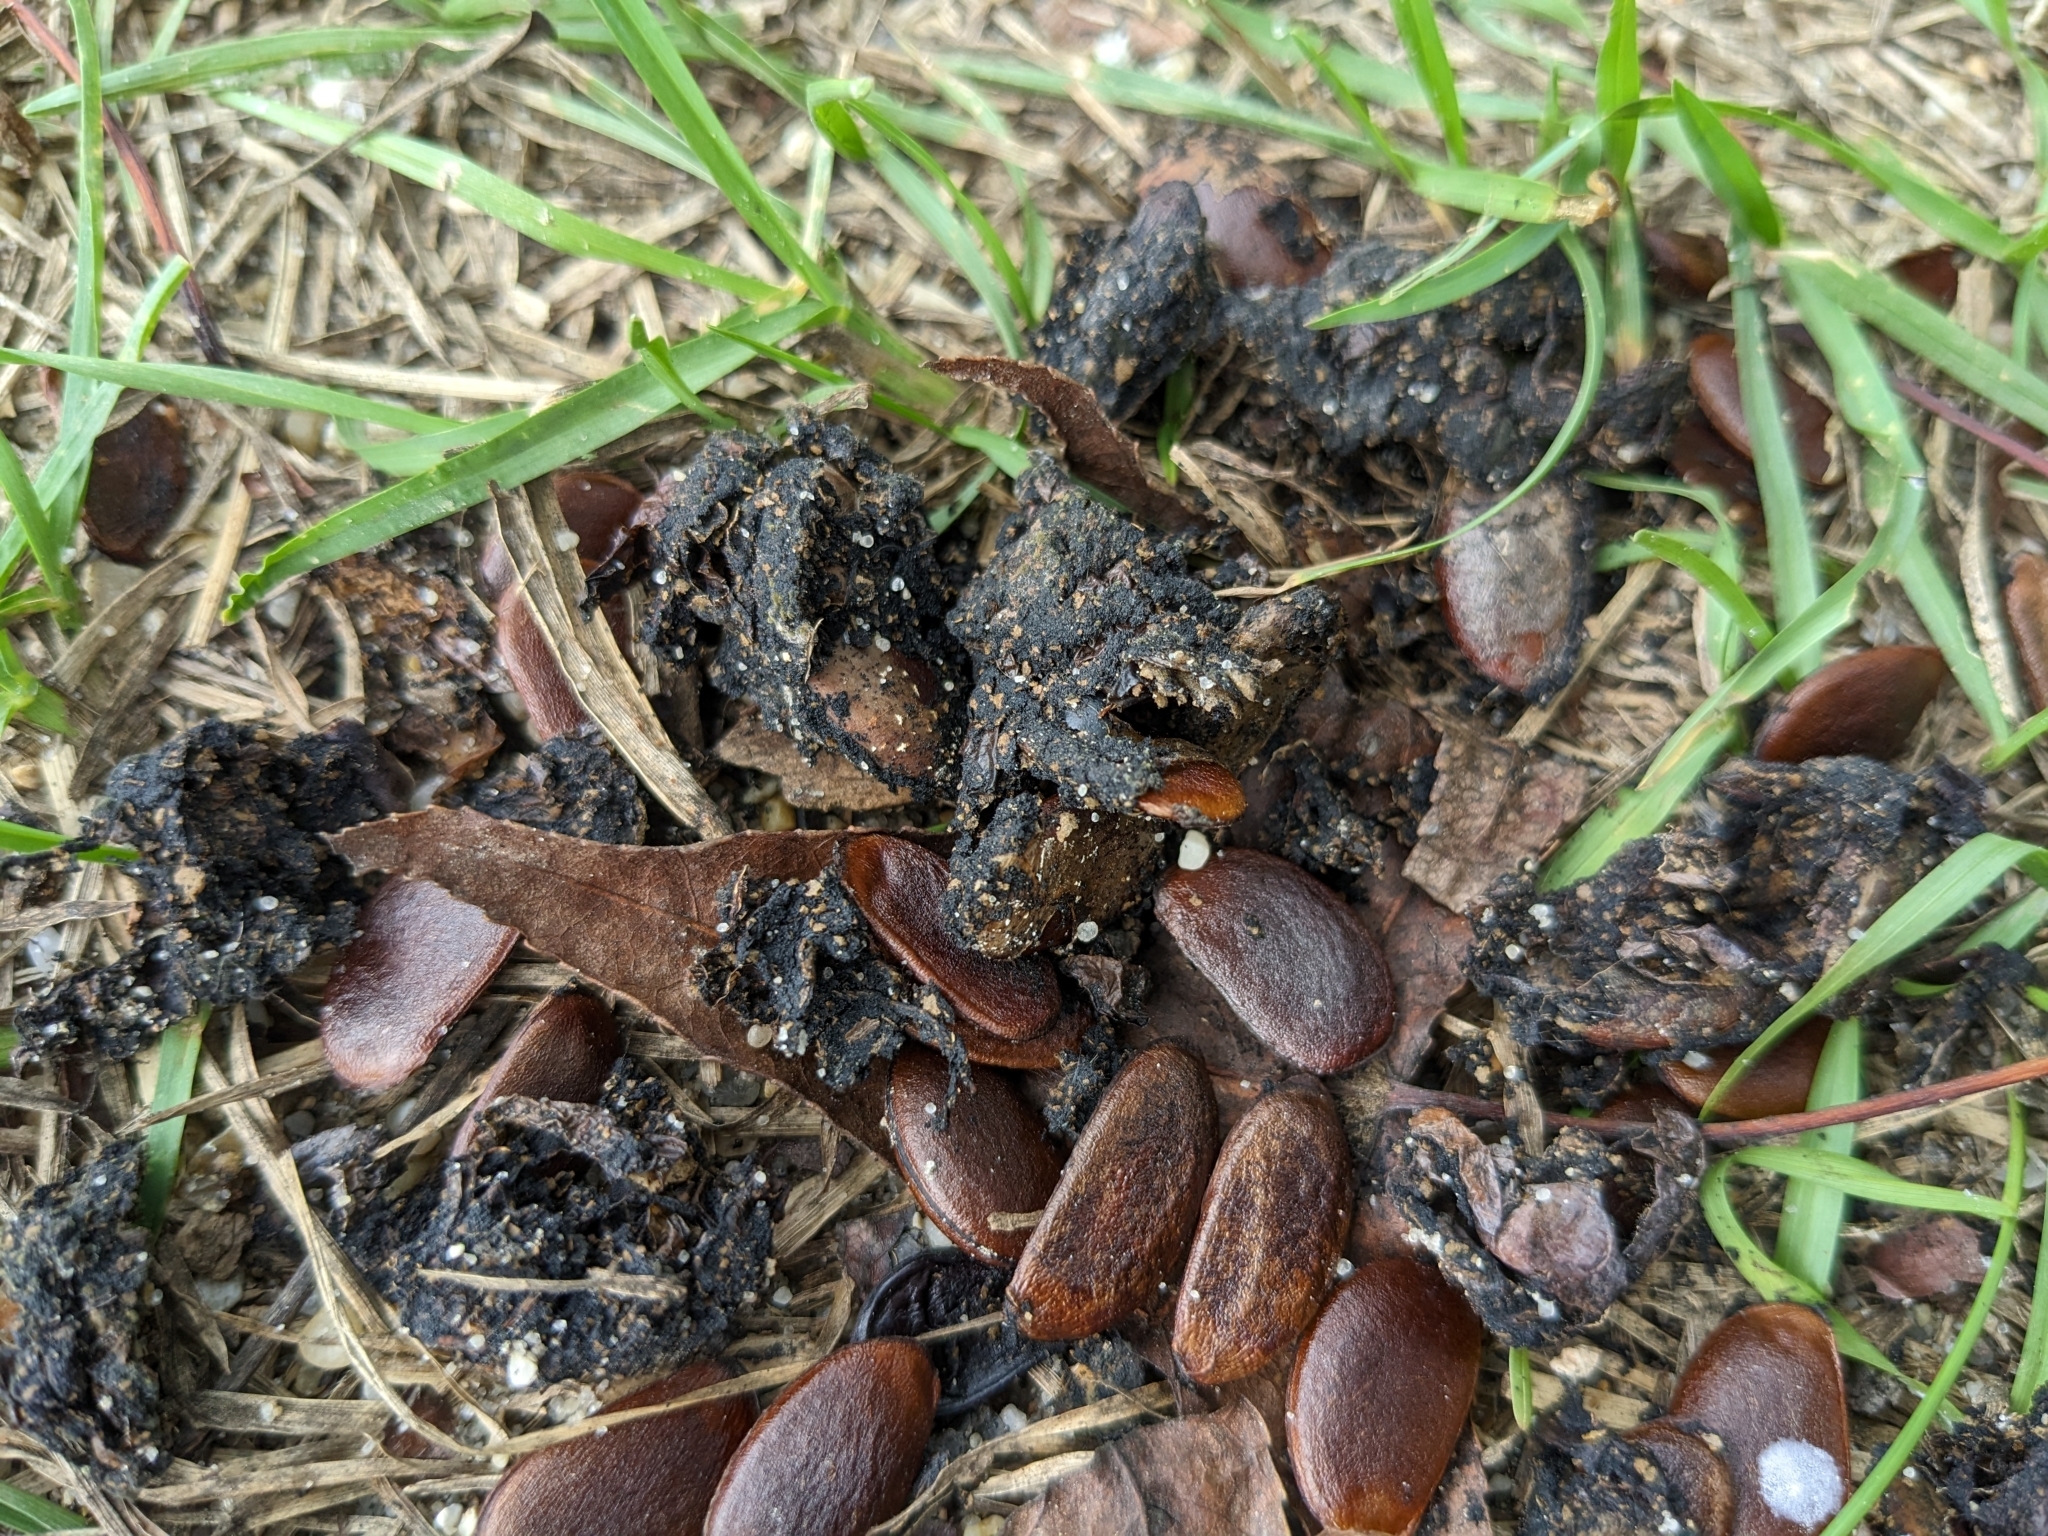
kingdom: Plantae
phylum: Tracheophyta
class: Magnoliopsida
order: Ericales
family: Ebenaceae
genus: Diospyros
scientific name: Diospyros virginiana
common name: Persimmon
